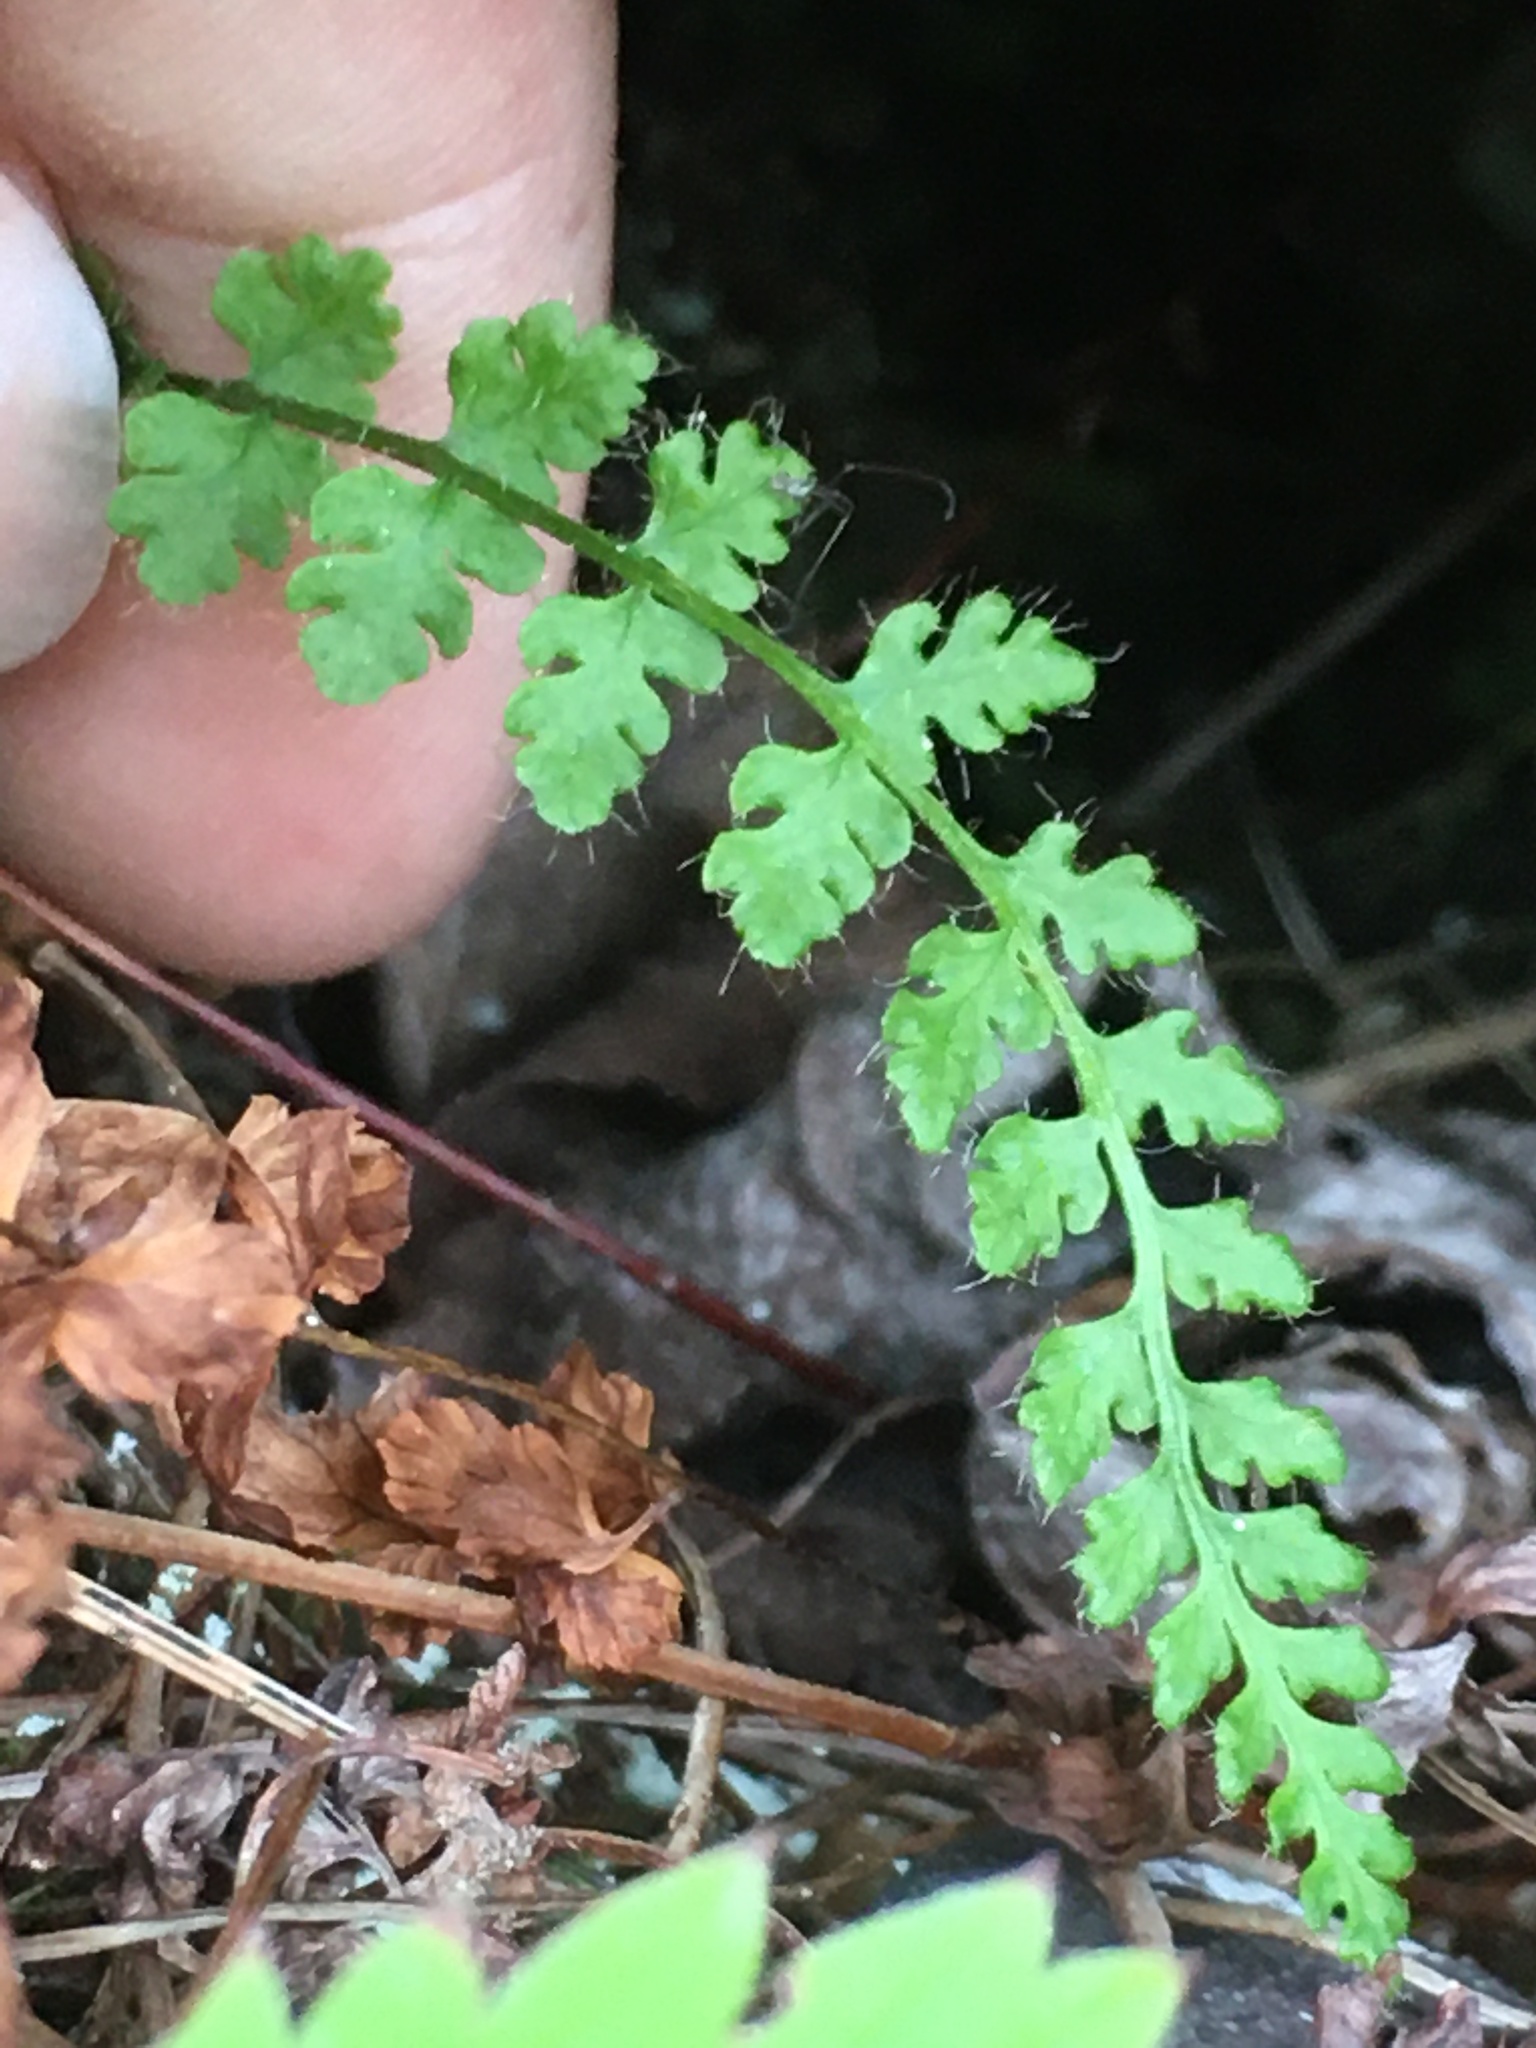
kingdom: Plantae
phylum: Tracheophyta
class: Polypodiopsida
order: Polypodiales
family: Woodsiaceae
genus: Woodsia
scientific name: Woodsia alpina
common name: Alpine woodsia
